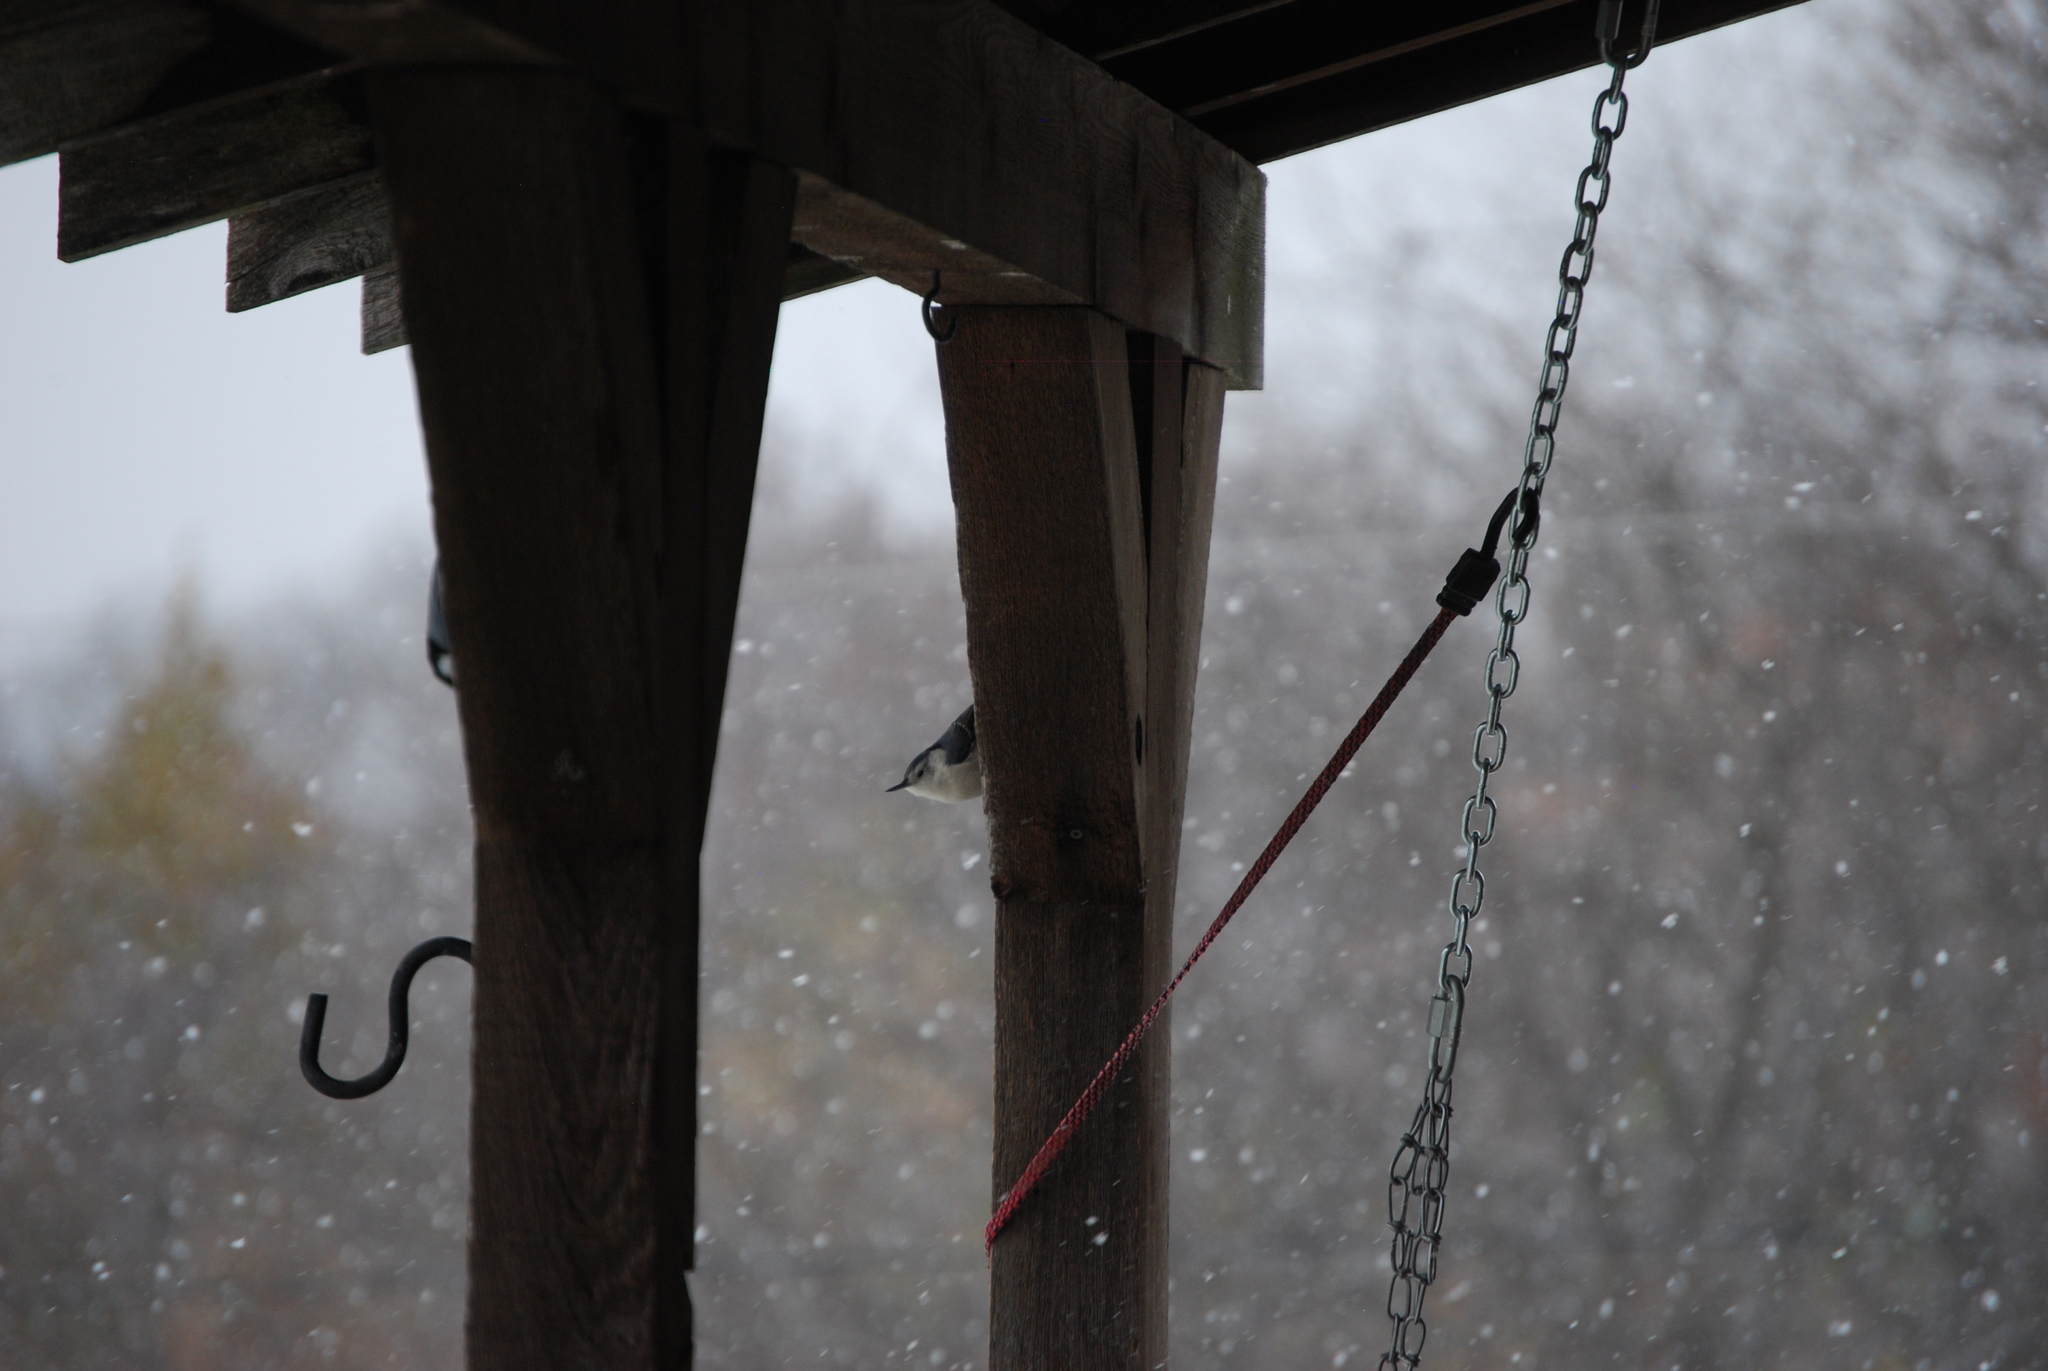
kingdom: Animalia
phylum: Chordata
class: Aves
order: Passeriformes
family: Sittidae
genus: Sitta
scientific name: Sitta carolinensis
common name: White-breasted nuthatch
